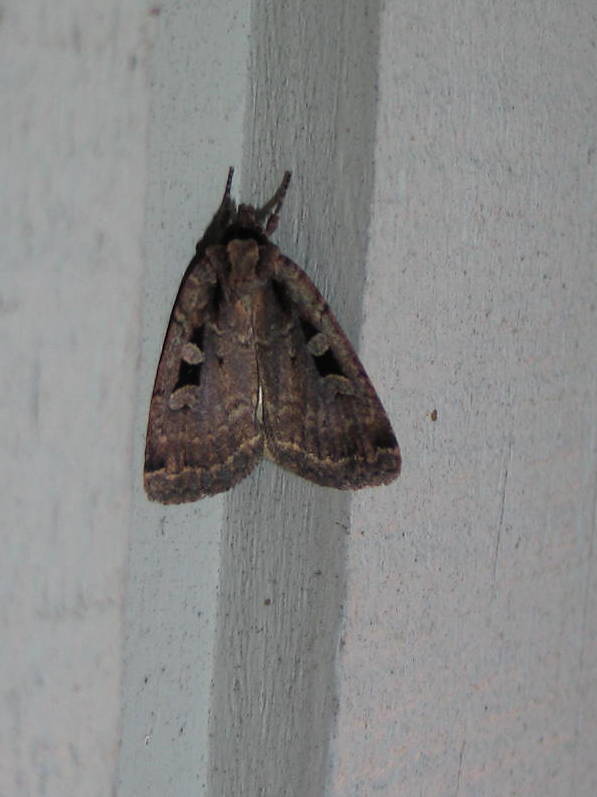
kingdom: Animalia
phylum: Arthropoda
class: Insecta
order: Lepidoptera
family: Noctuidae
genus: Eueretagrotis
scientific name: Eueretagrotis perattentus
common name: Two-spot dart moth
